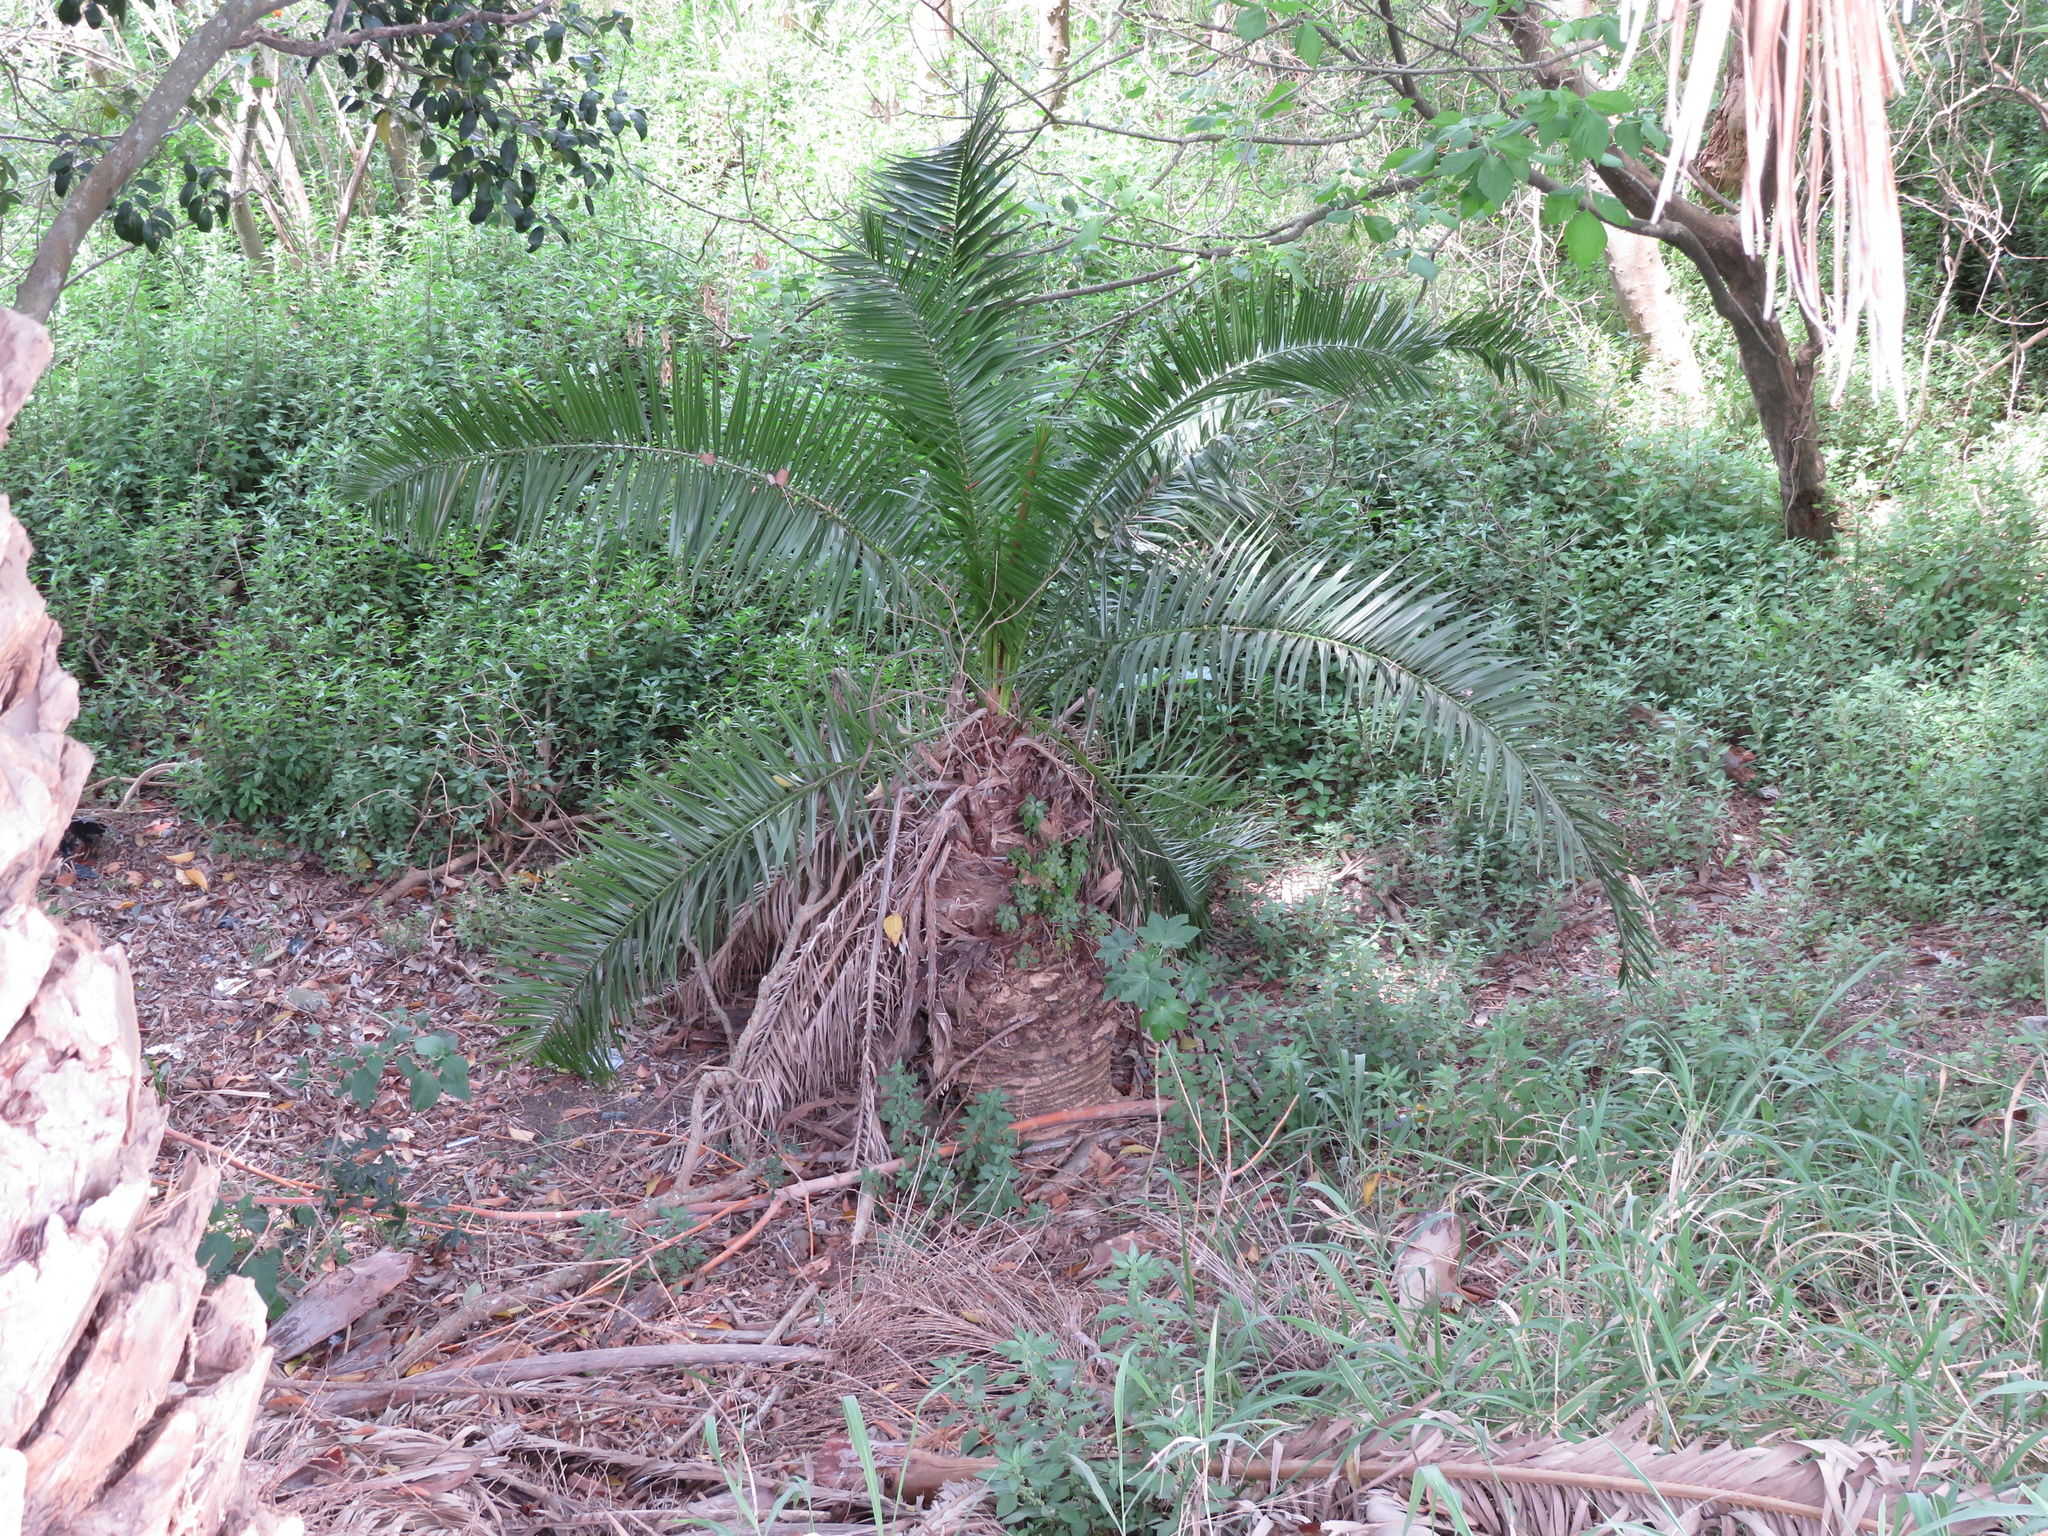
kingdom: Plantae
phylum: Tracheophyta
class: Liliopsida
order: Arecales
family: Arecaceae
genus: Phoenix
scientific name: Phoenix canariensis
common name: Canary island date palm
